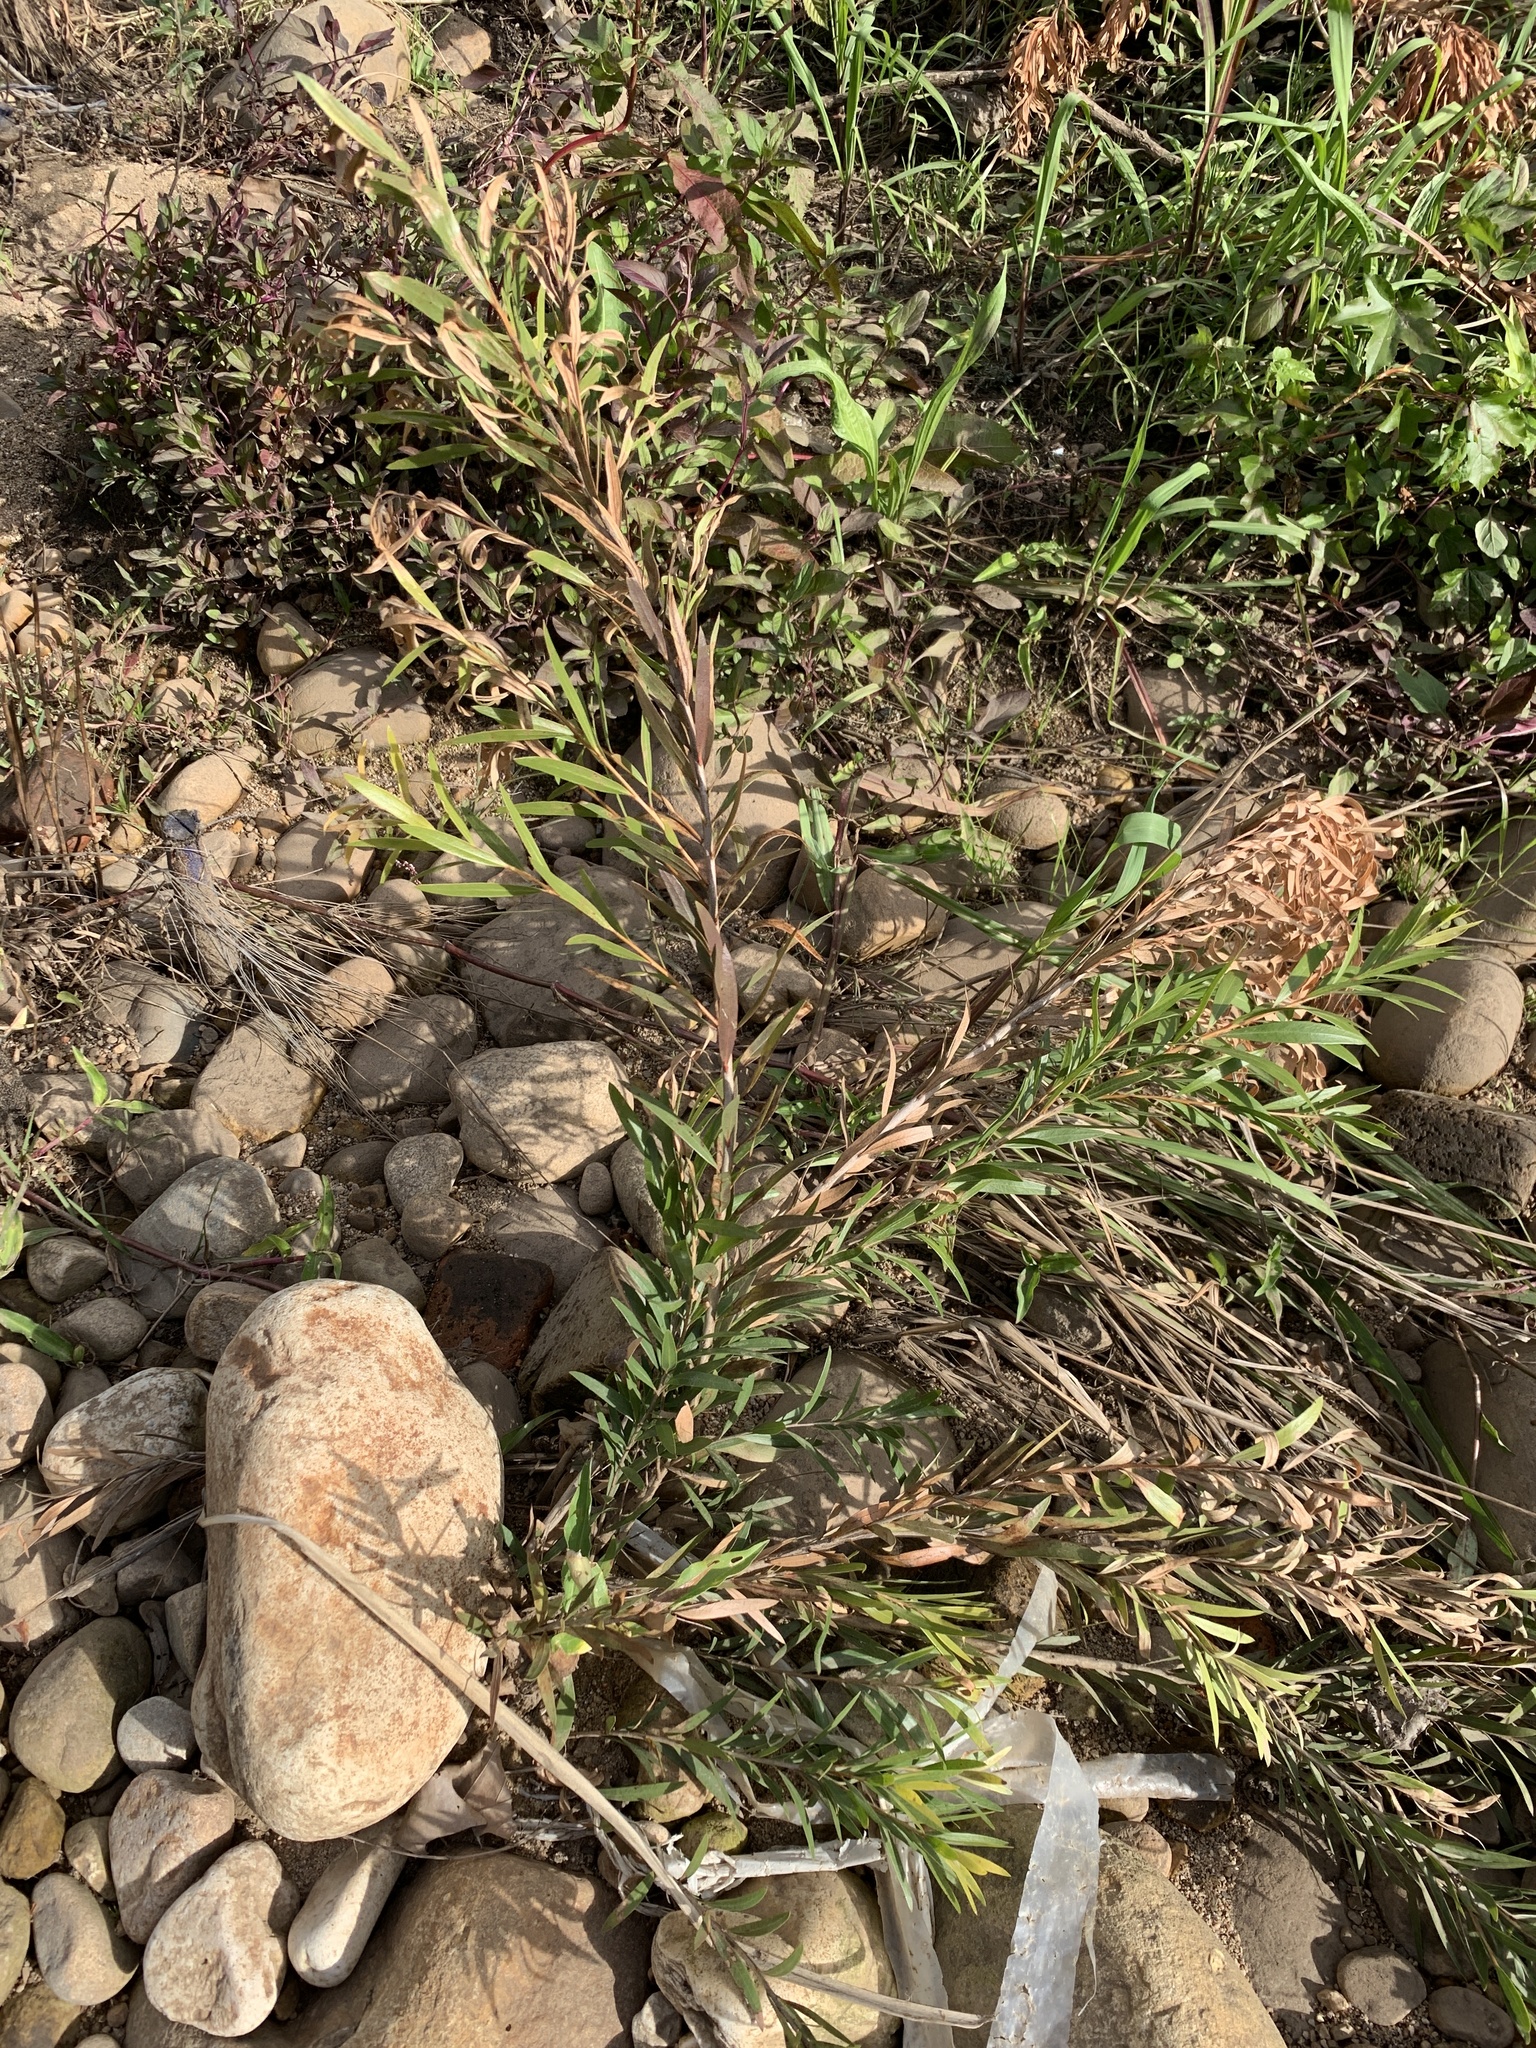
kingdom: Plantae
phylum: Tracheophyta
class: Magnoliopsida
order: Myrtales
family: Myrtaceae
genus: Callistemon
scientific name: Callistemon viminalis
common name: Drooping bottlebrush
